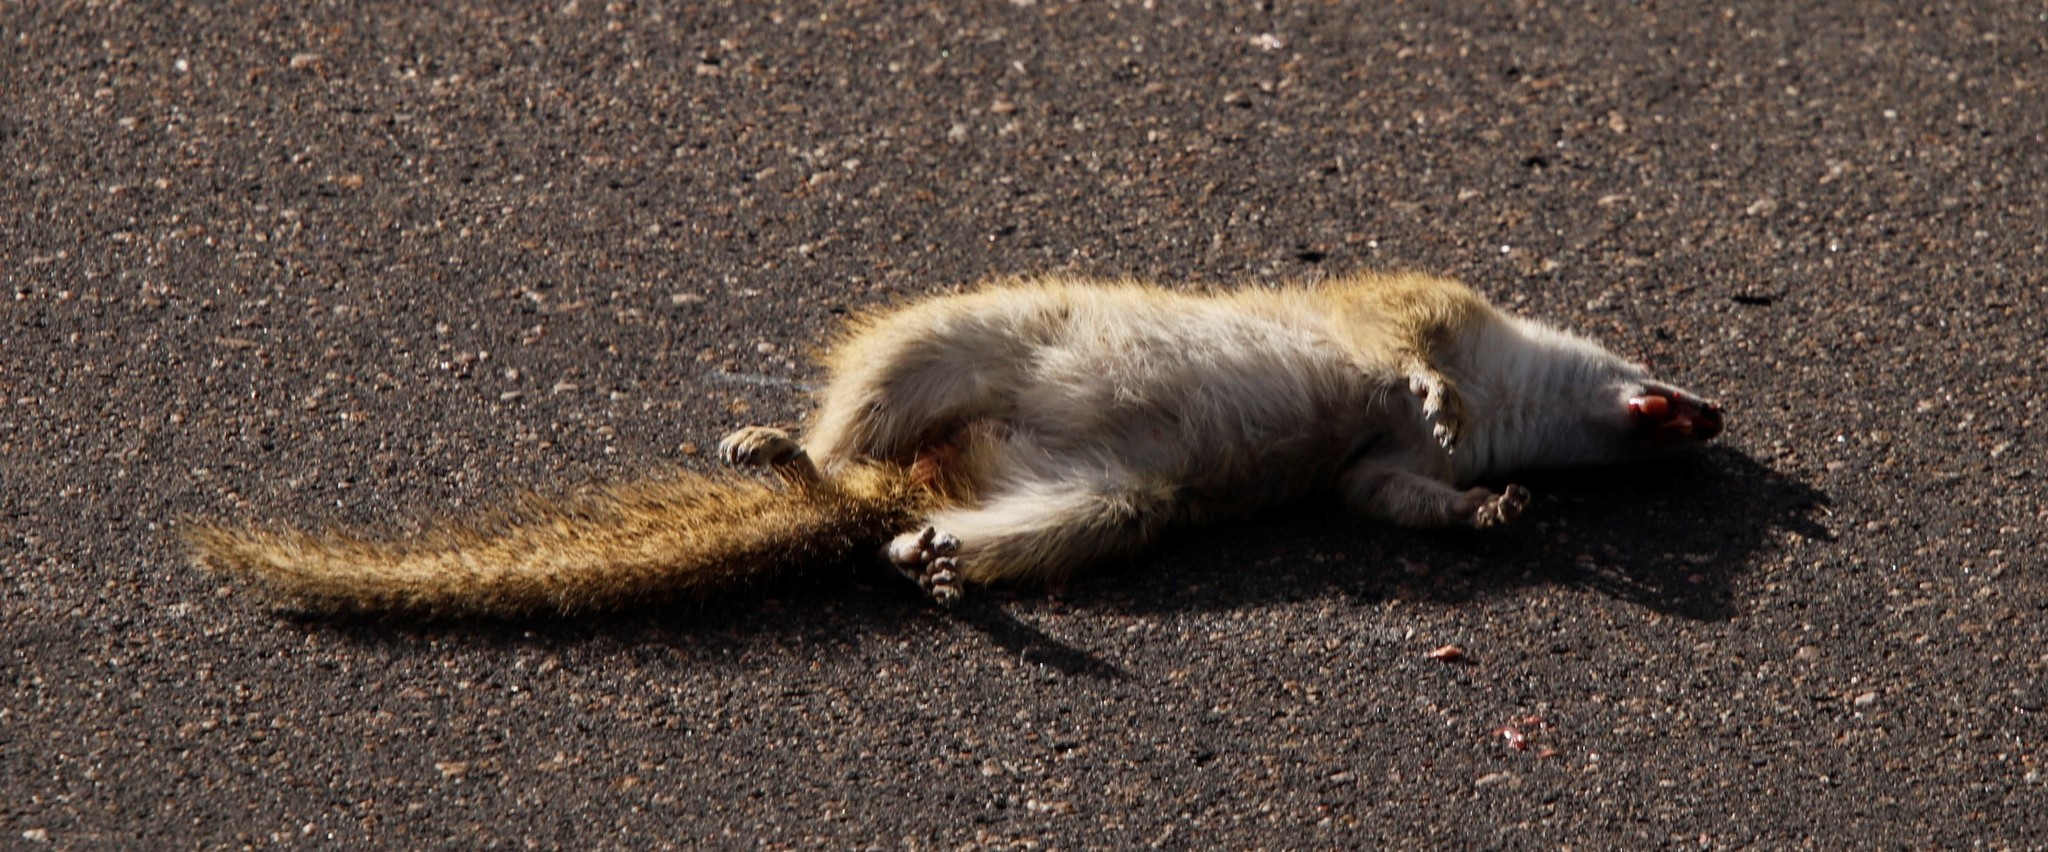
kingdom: Animalia
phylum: Chordata
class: Mammalia
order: Rodentia
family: Sciuridae
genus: Paraxerus
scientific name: Paraxerus cepapi
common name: Smith's bush squirrel
